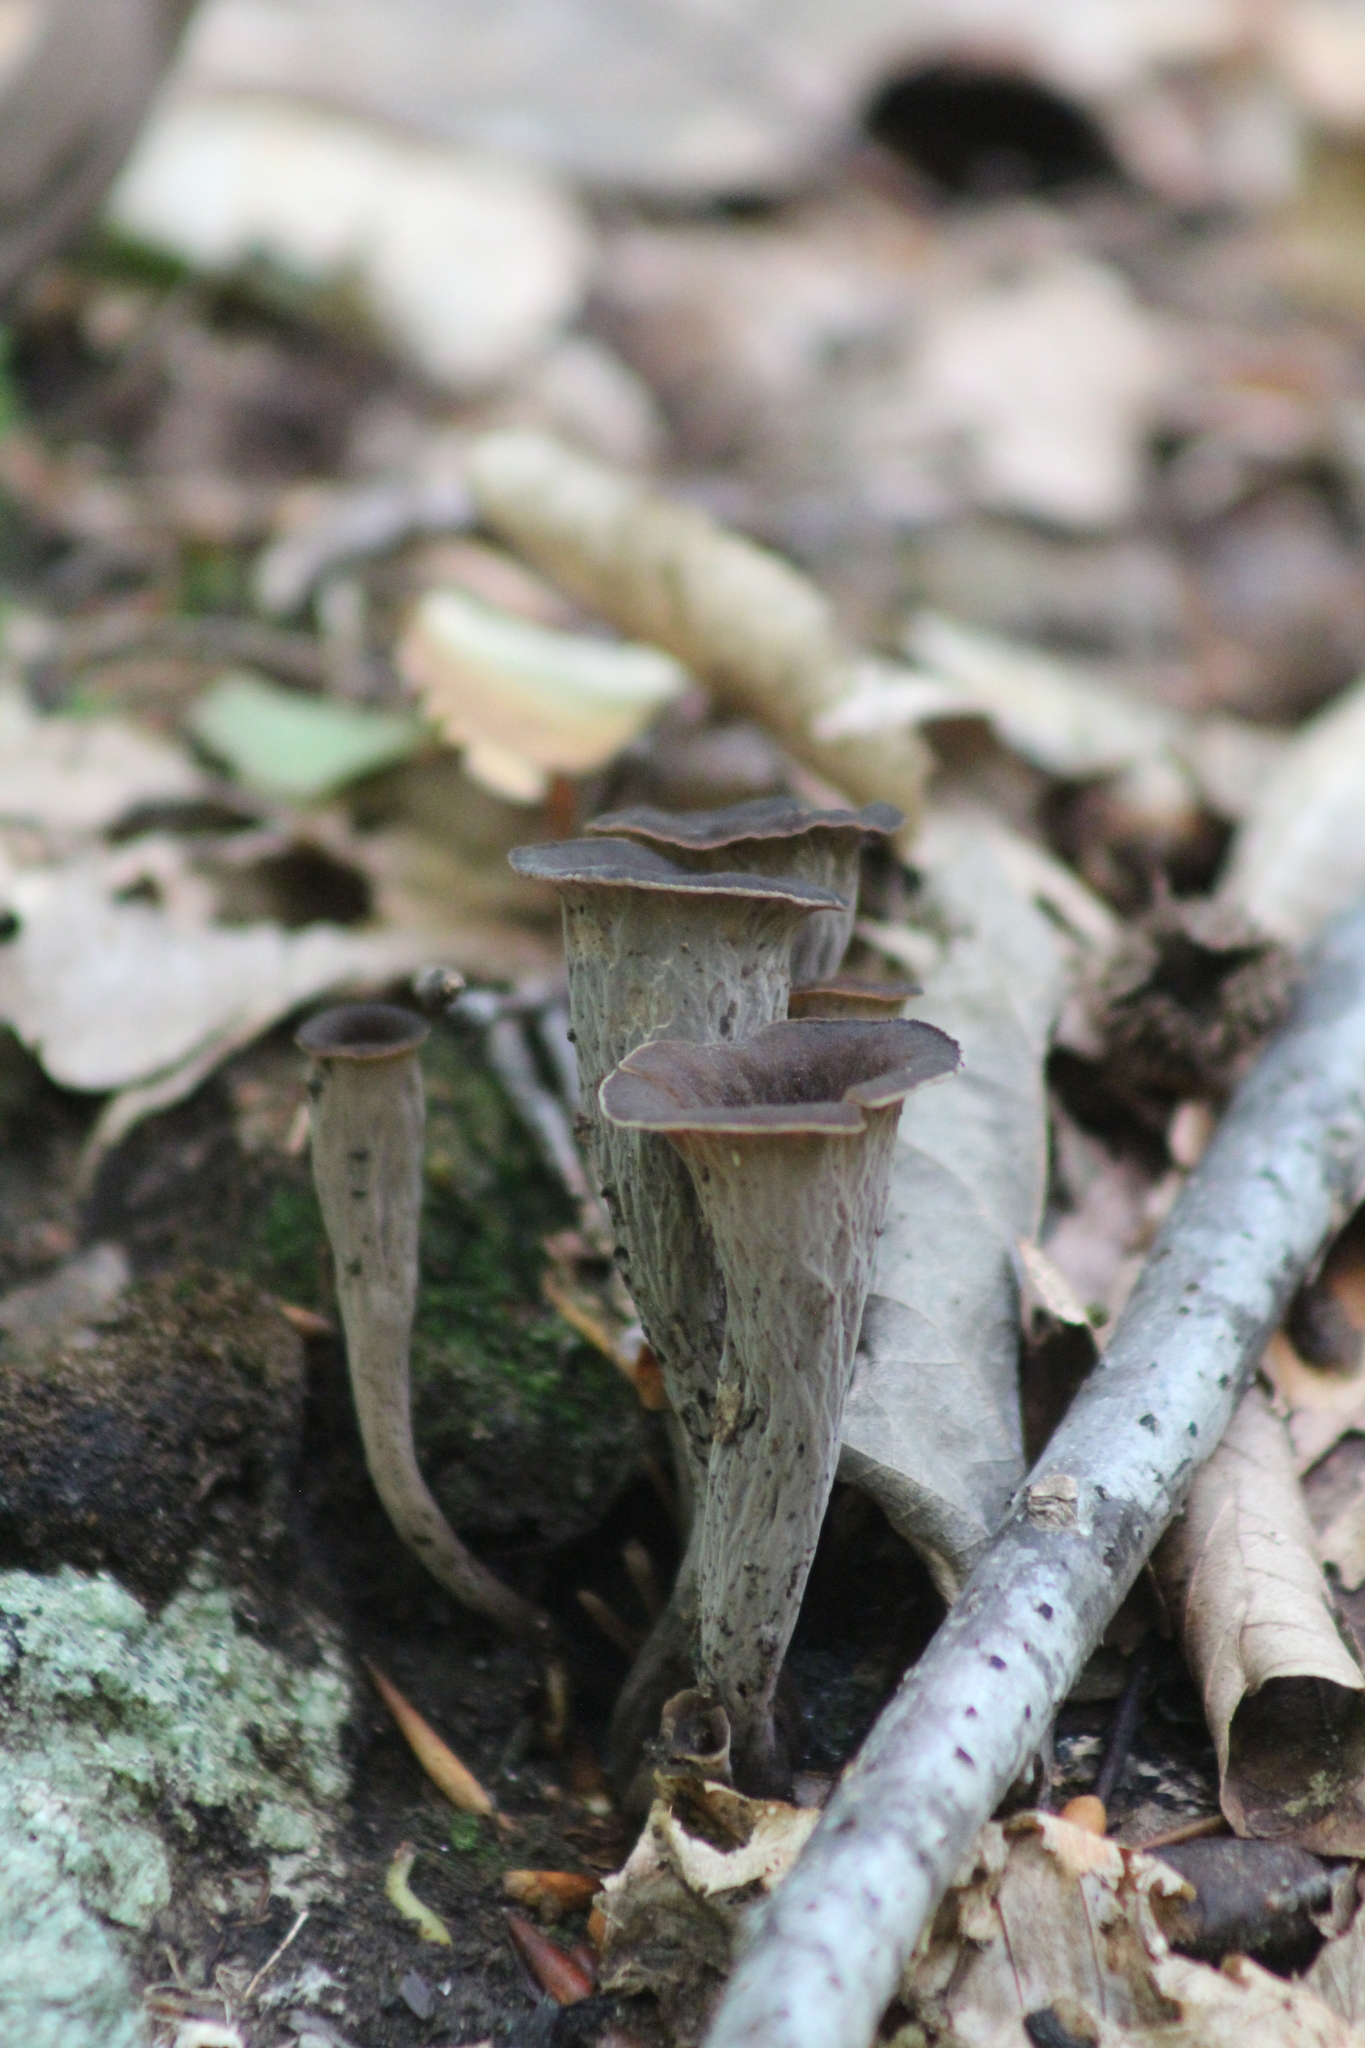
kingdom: Fungi
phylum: Basidiomycota
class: Agaricomycetes
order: Cantharellales
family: Hydnaceae
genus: Craterellus
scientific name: Craterellus cornucopioides
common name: Horn of plenty
